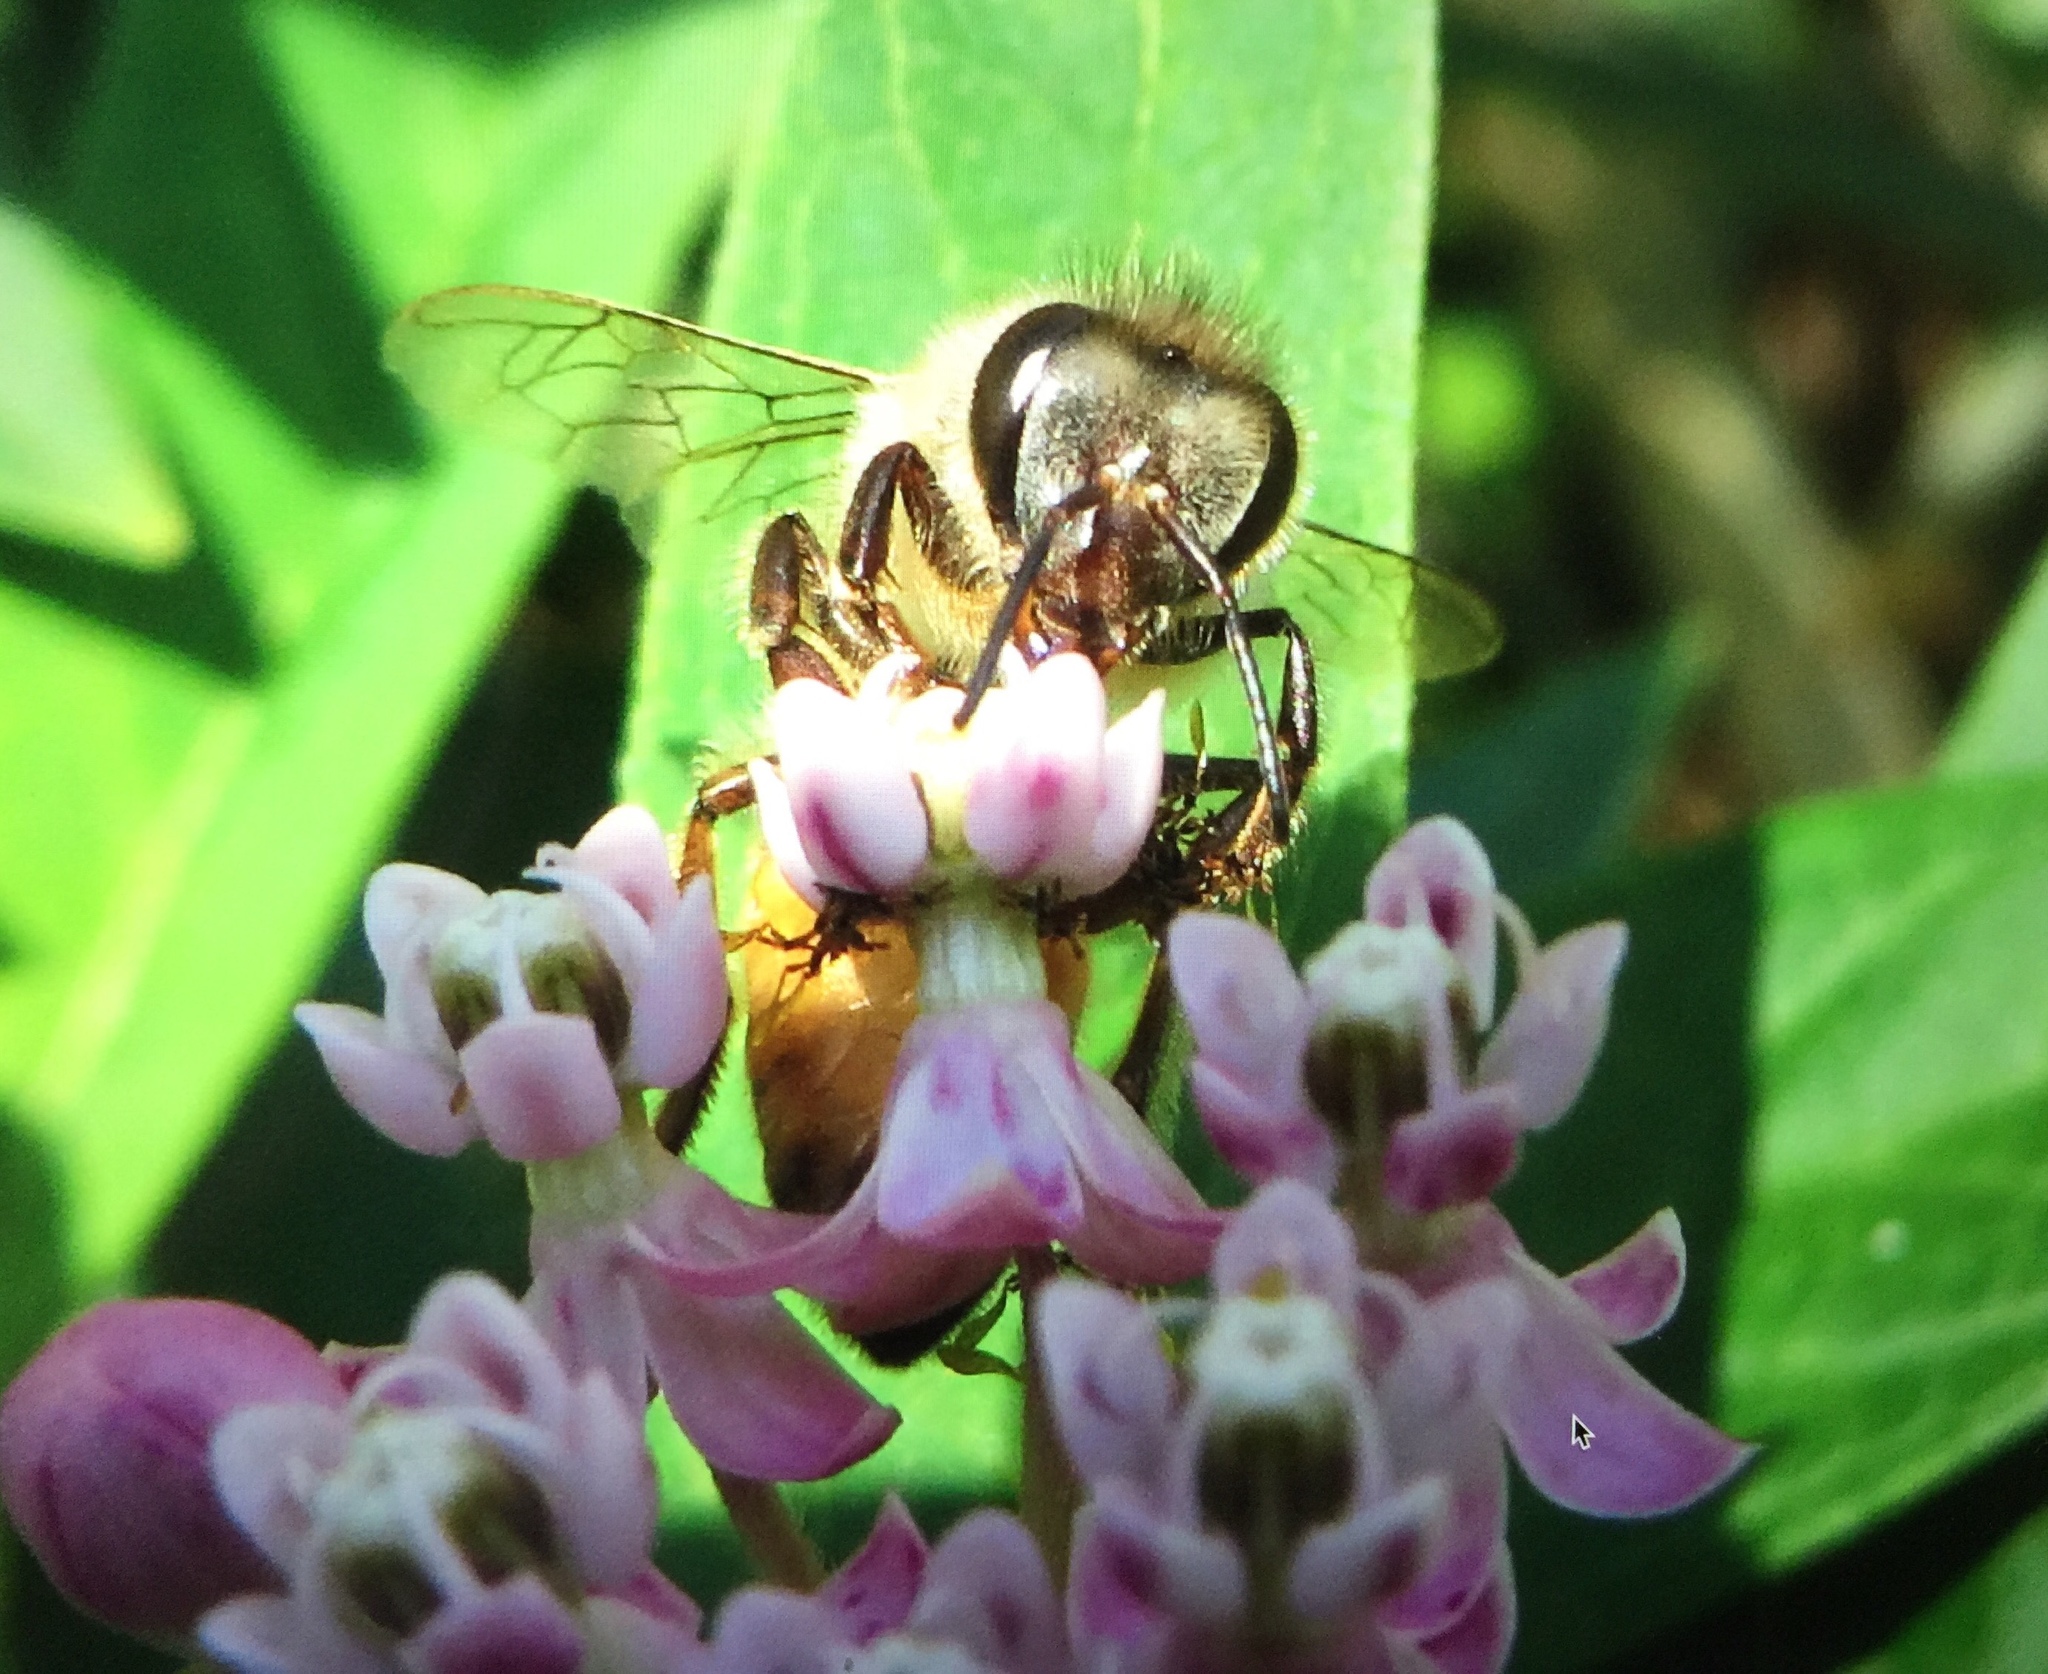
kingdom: Animalia
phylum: Arthropoda
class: Insecta
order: Hymenoptera
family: Apidae
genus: Apis
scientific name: Apis mellifera
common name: Honey bee
